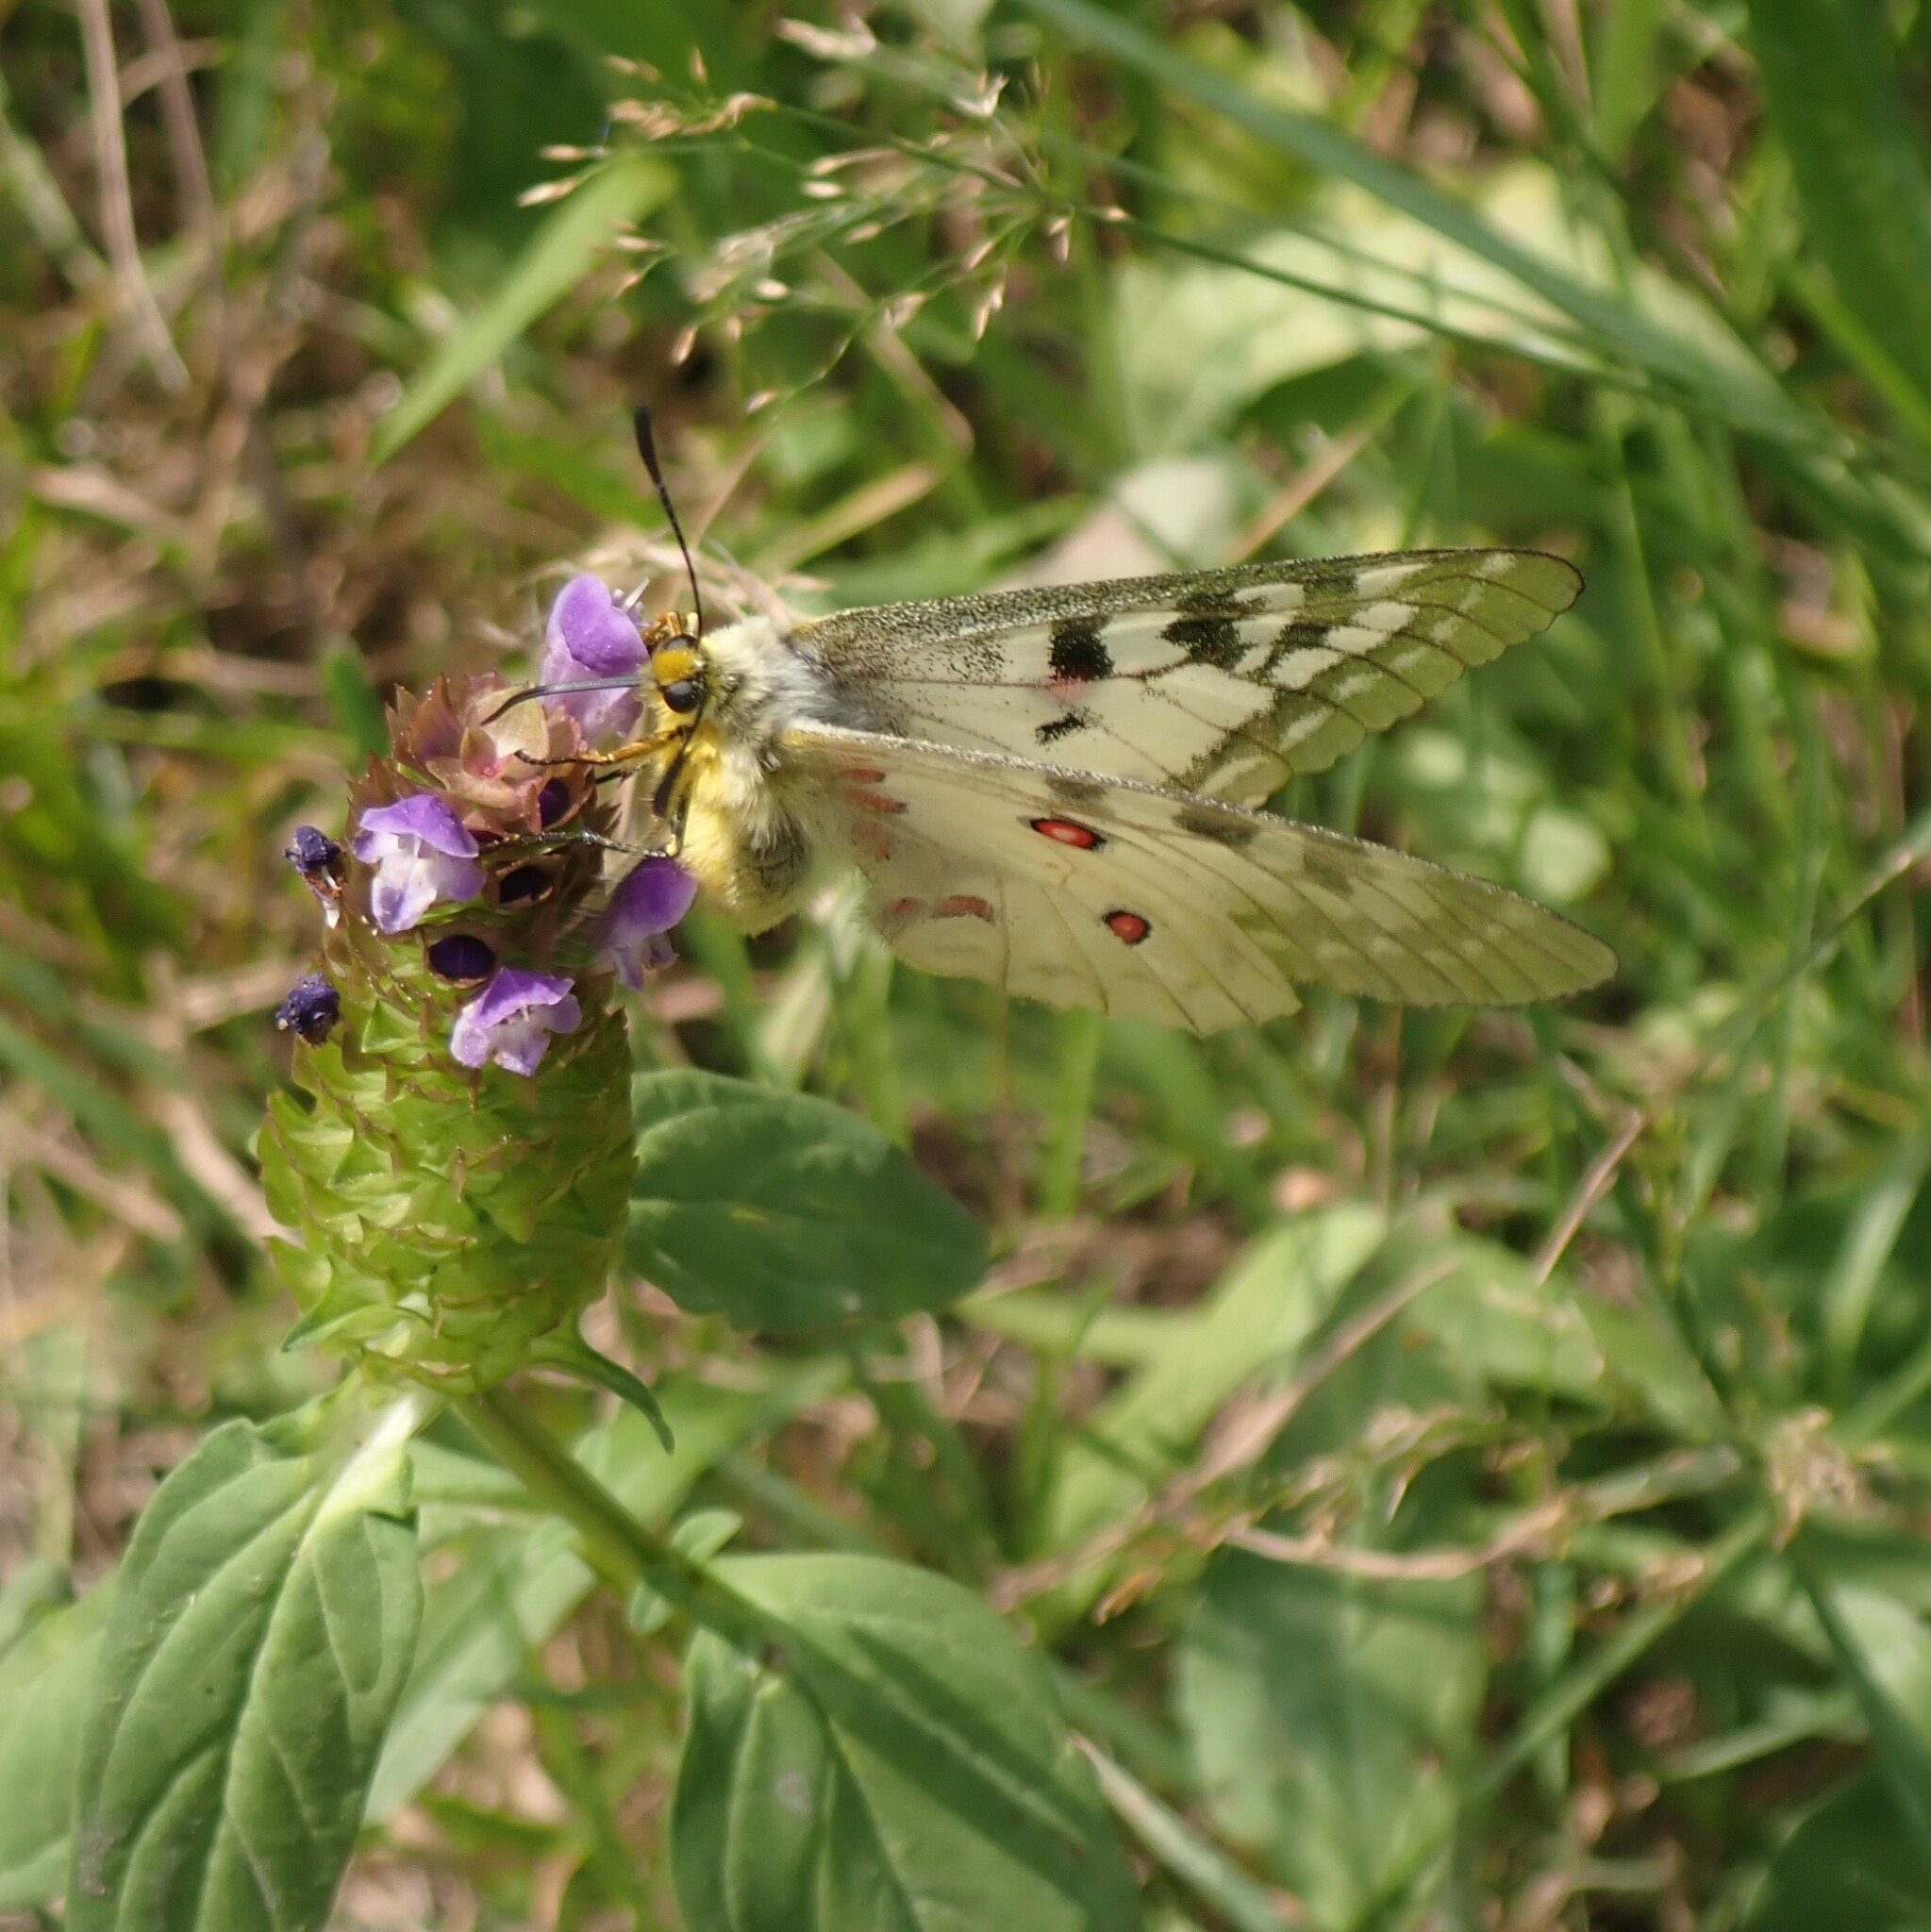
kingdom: Animalia
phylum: Arthropoda
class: Insecta
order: Lepidoptera
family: Papilionidae
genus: Parnassius
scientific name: Parnassius clodius
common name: American apollo
